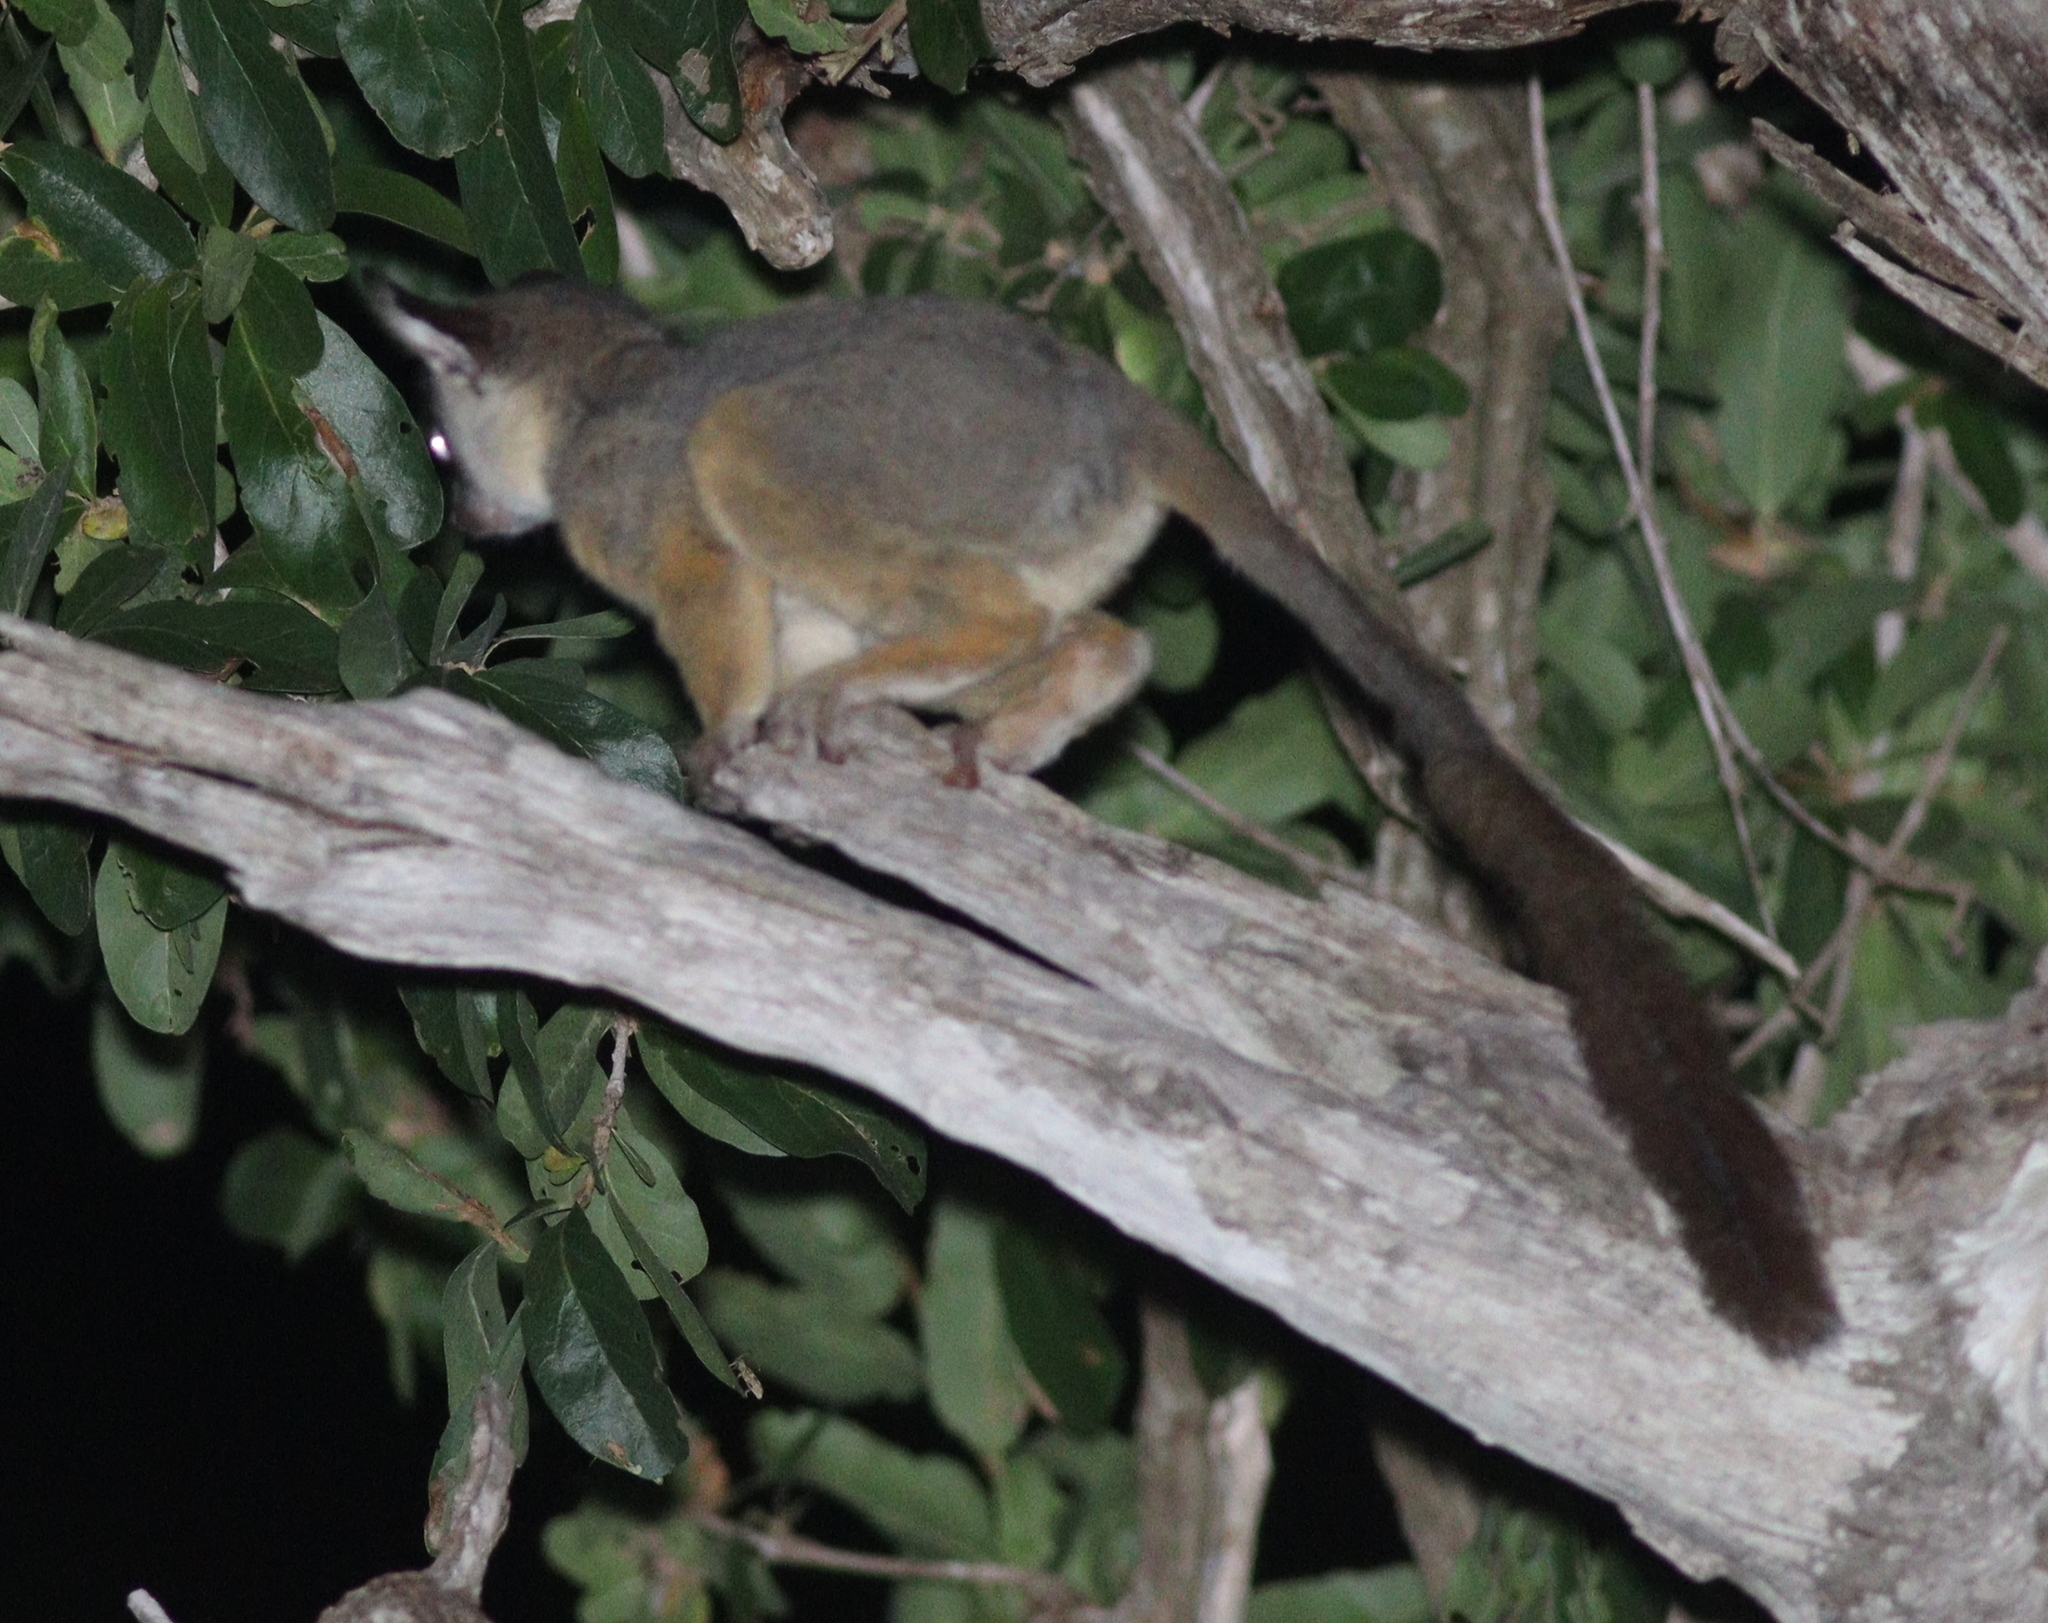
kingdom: Animalia
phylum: Chordata
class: Mammalia
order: Primates
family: Galagidae
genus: Galago
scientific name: Galago senegalensis
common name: Senegal bushbaby
